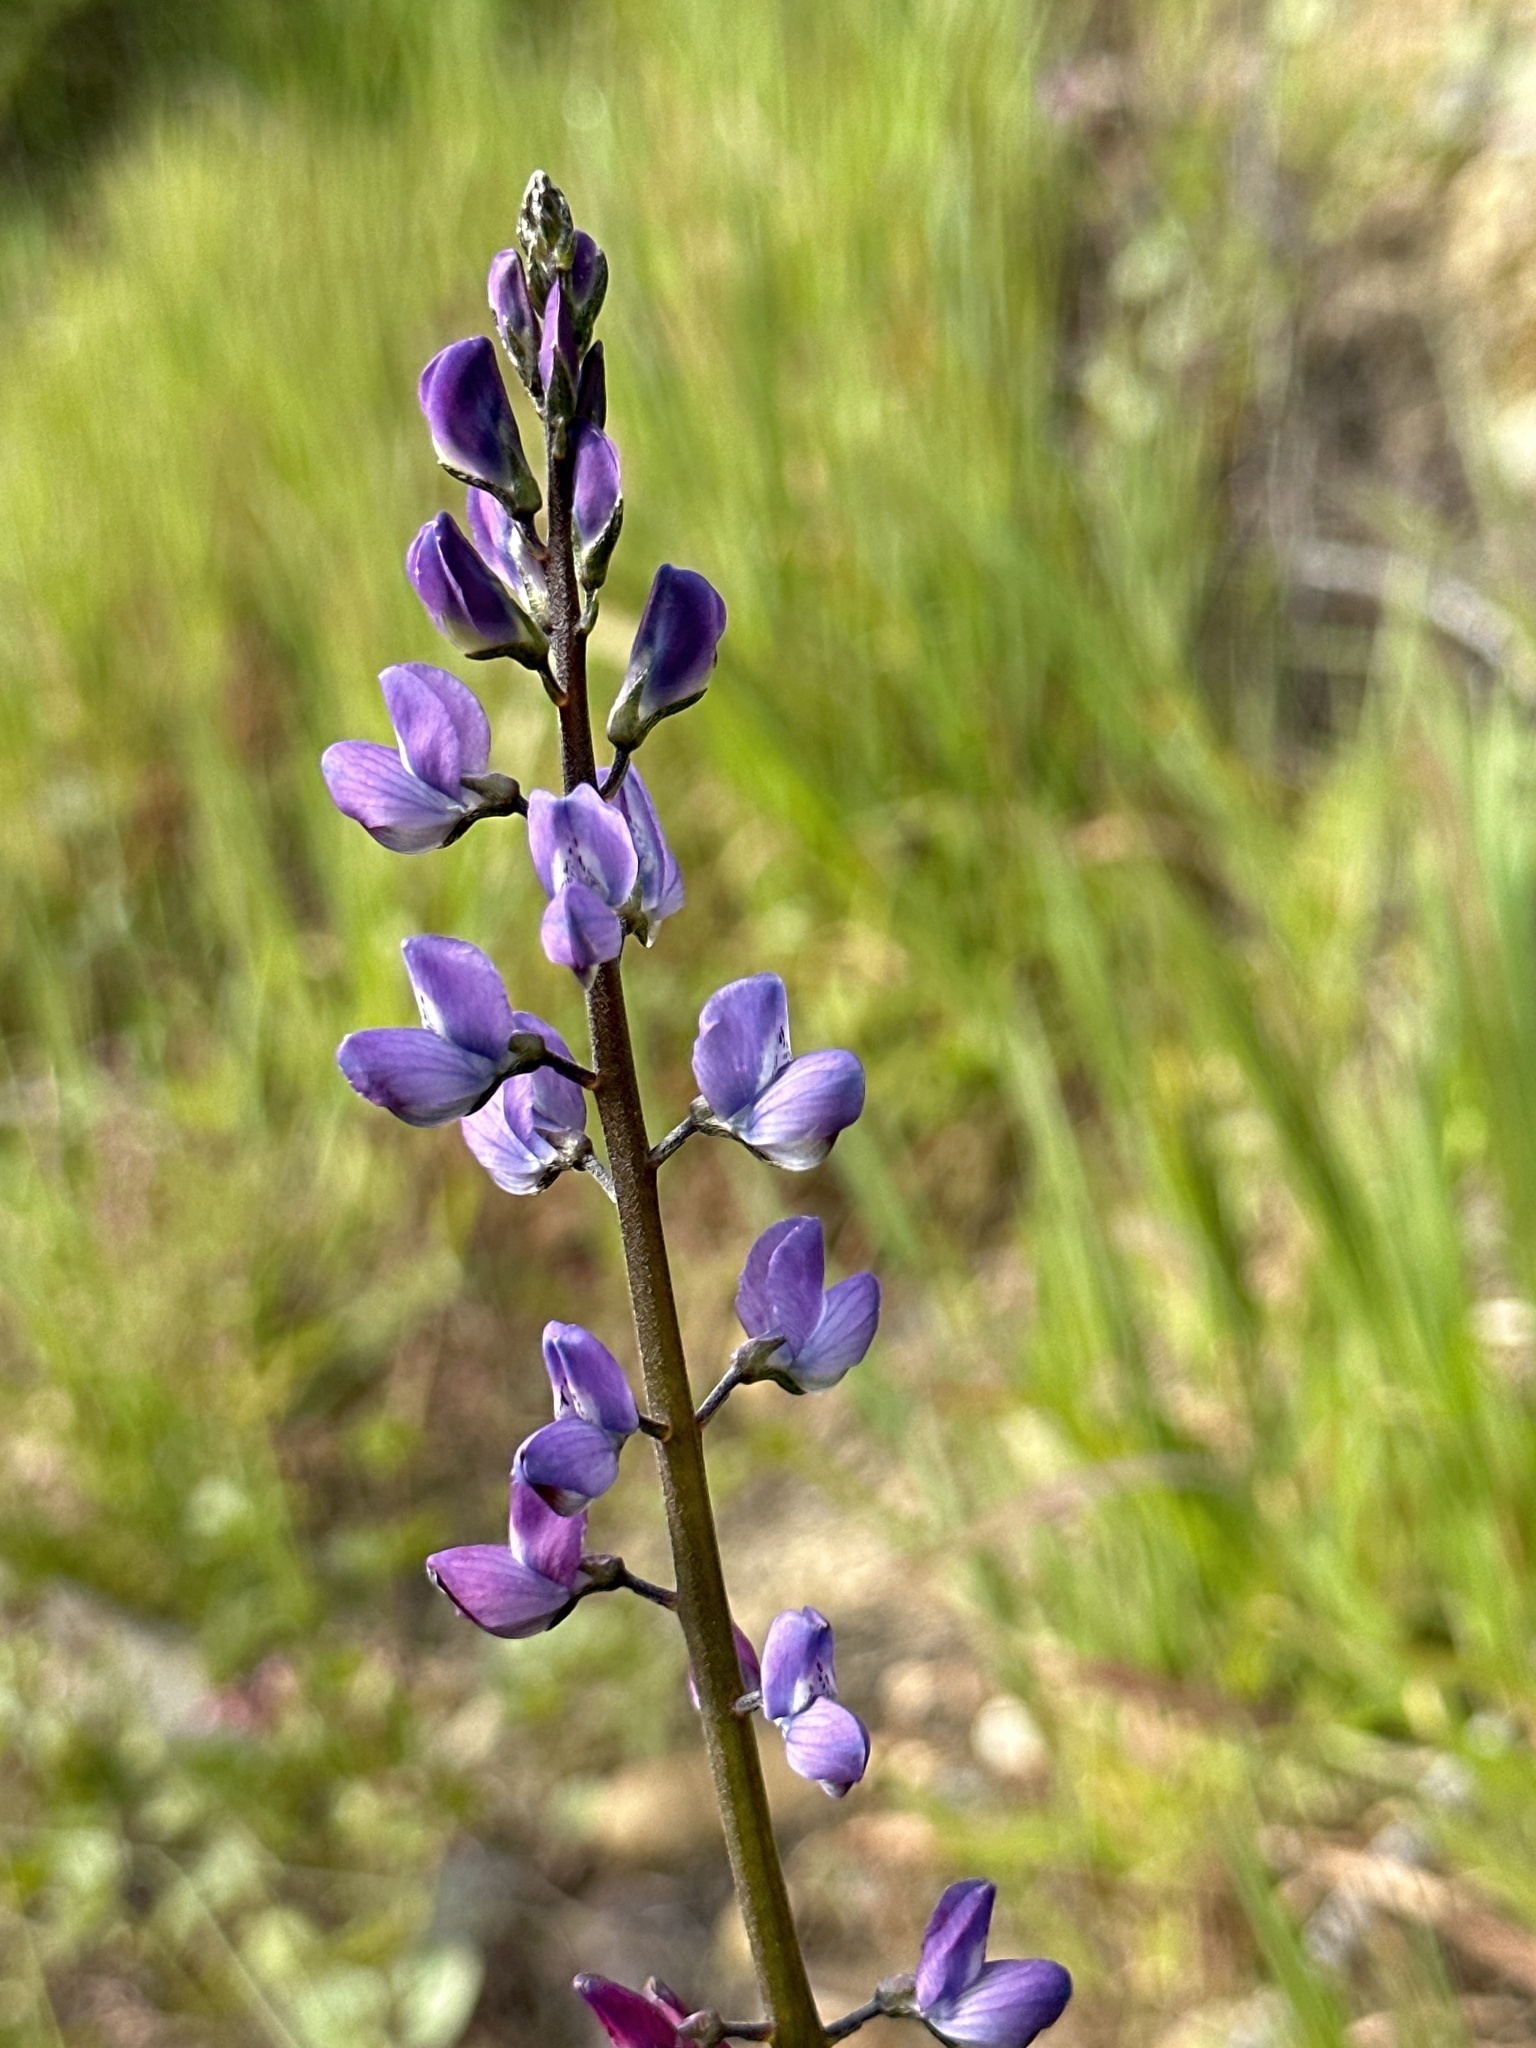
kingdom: Plantae
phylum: Tracheophyta
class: Magnoliopsida
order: Fabales
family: Fabaceae
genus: Lupinus
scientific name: Lupinus truncatus
